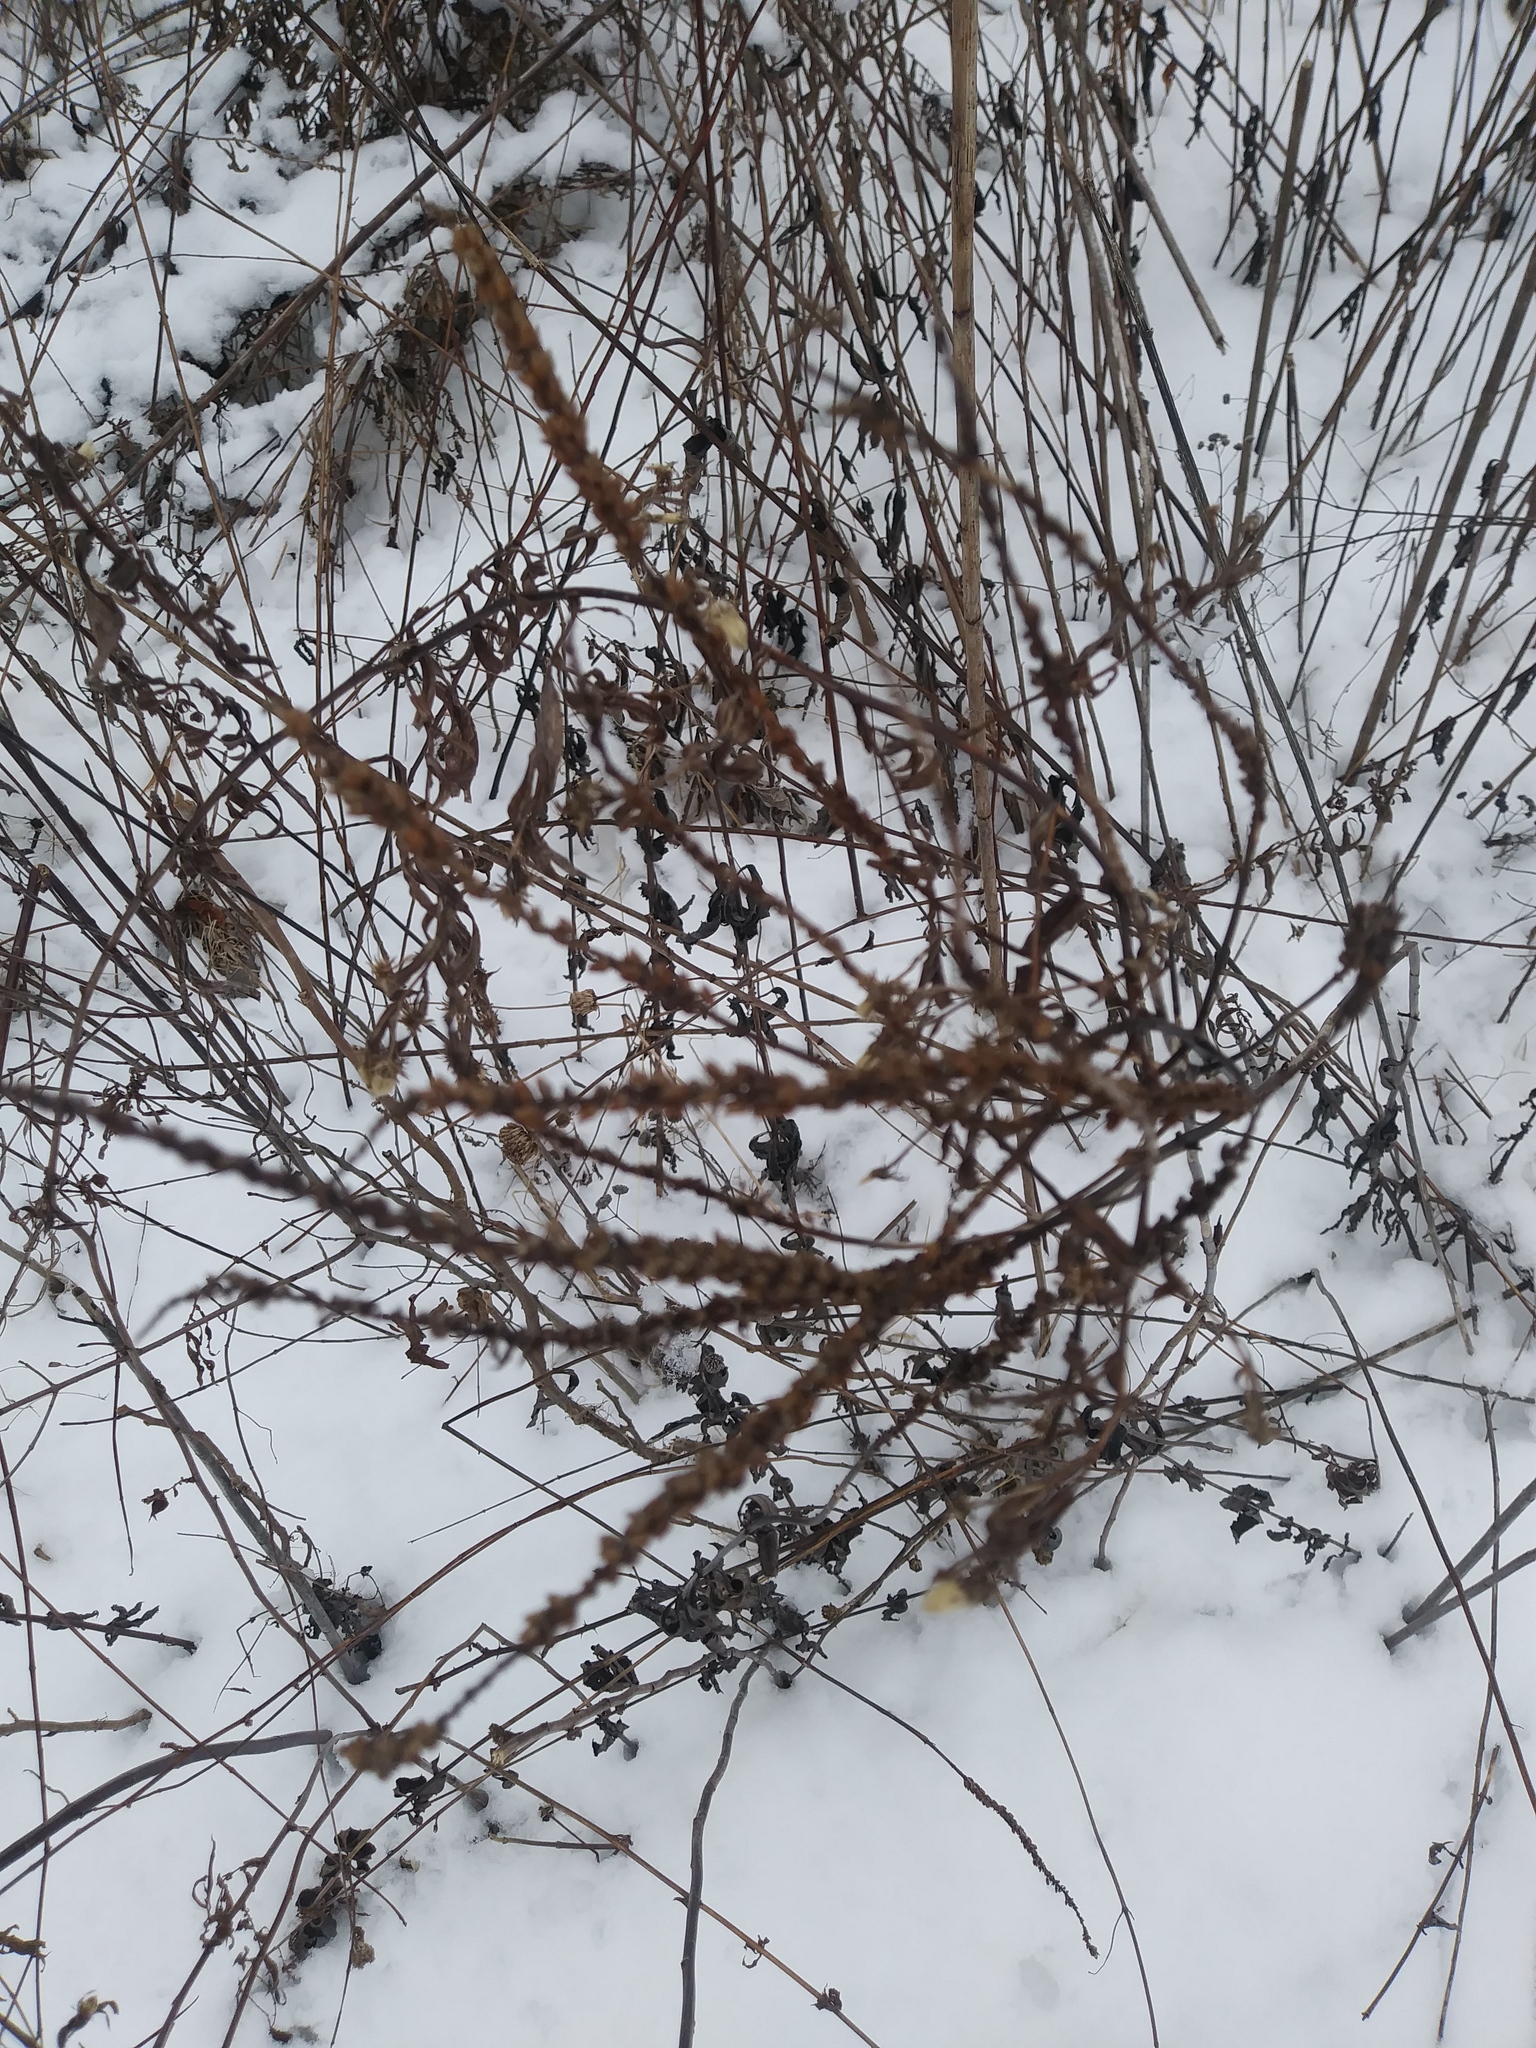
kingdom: Plantae
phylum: Tracheophyta
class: Magnoliopsida
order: Lamiales
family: Verbenaceae
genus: Verbena
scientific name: Verbena hastata
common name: American blue vervain
